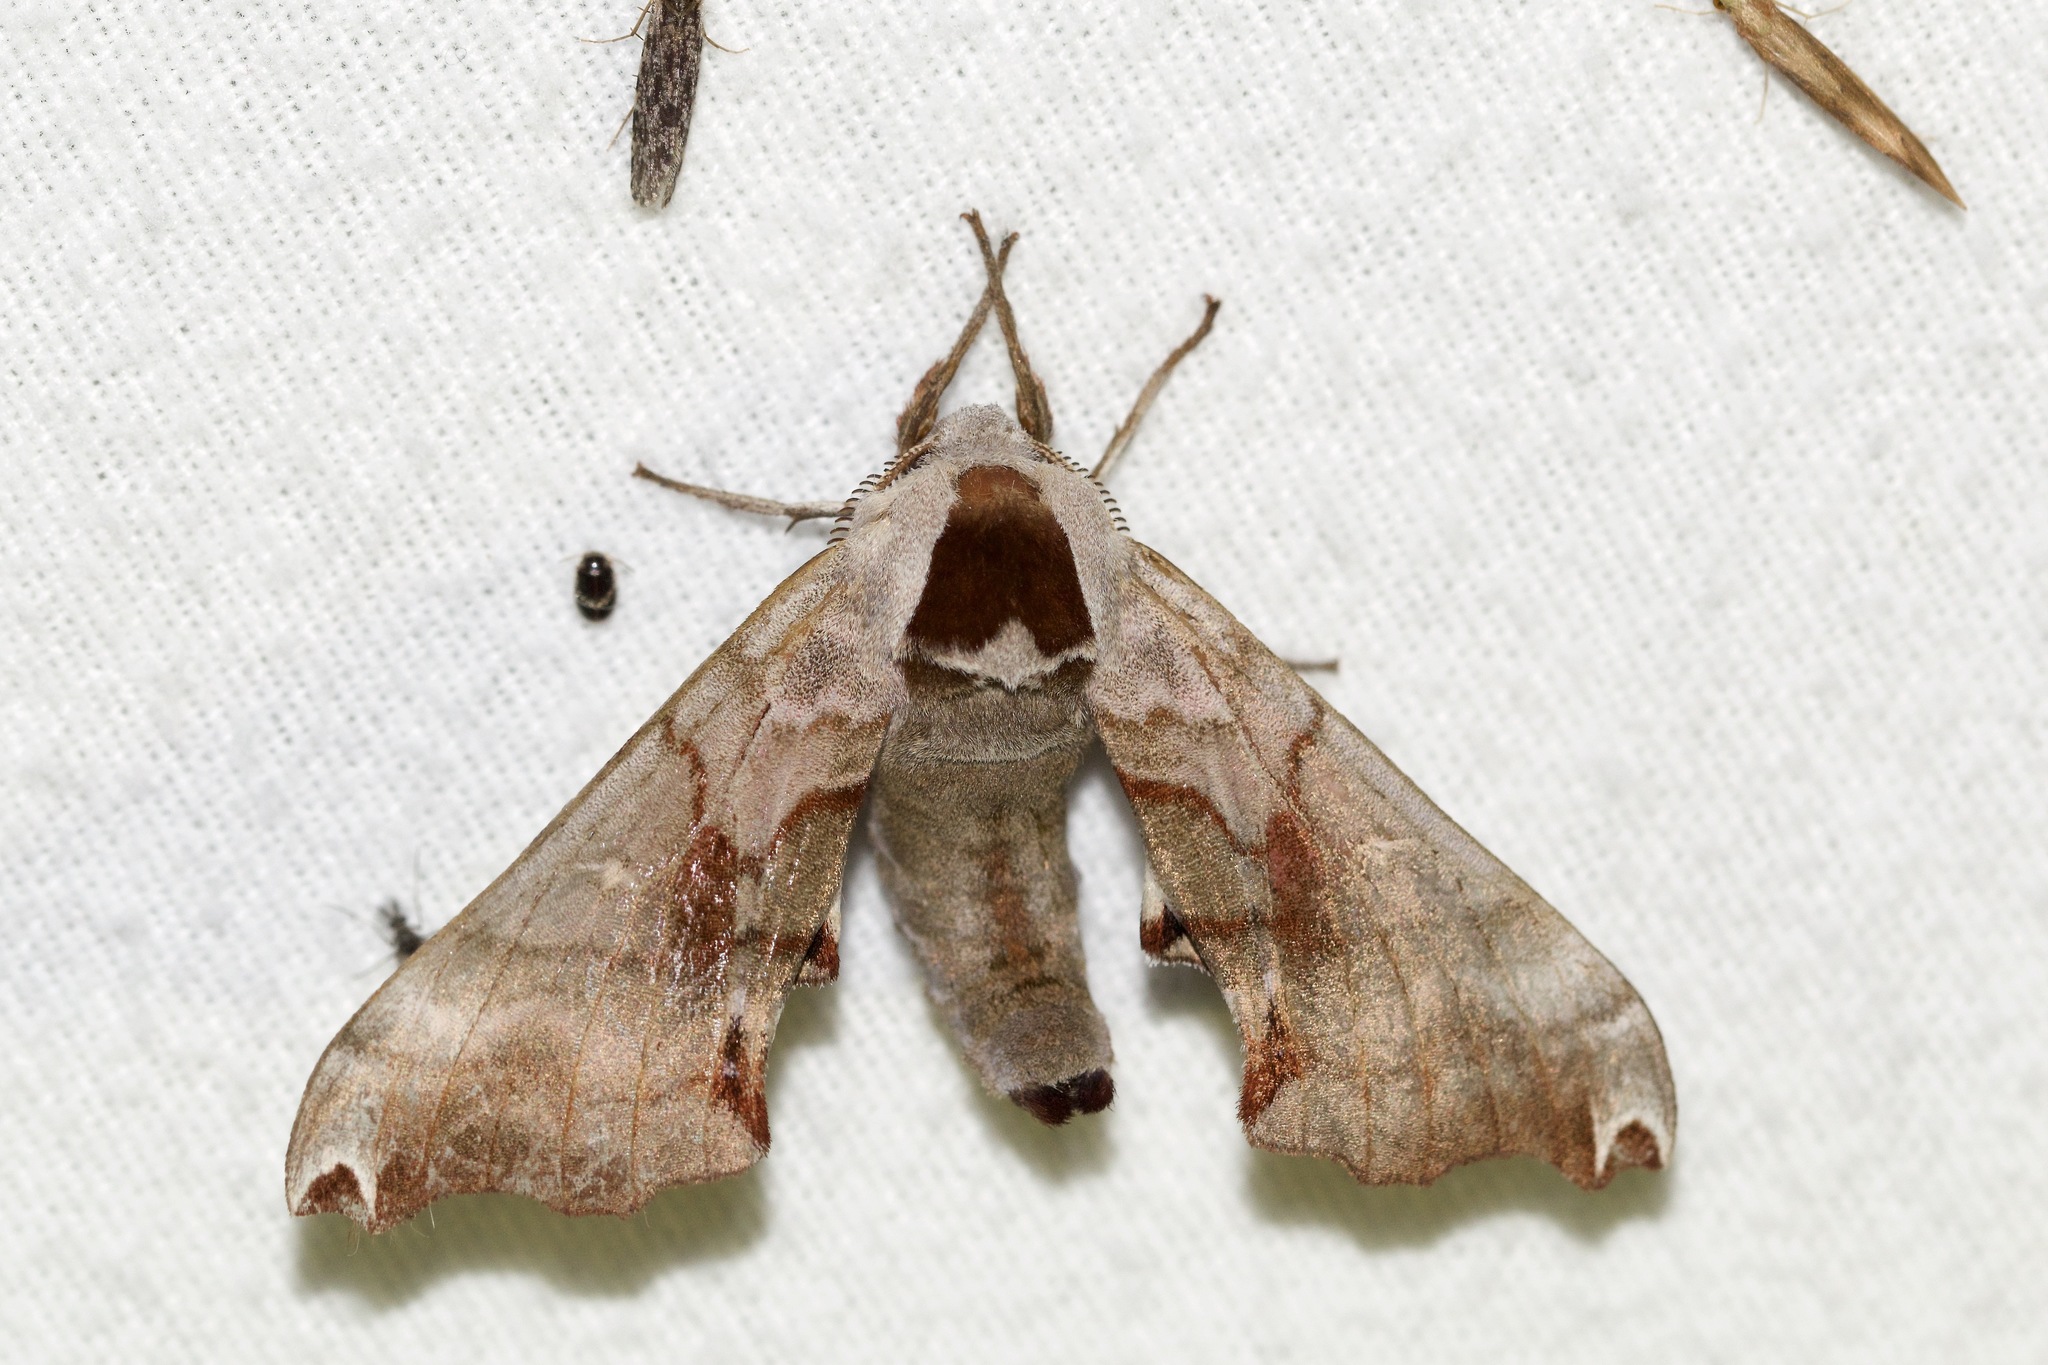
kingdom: Animalia
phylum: Arthropoda
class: Insecta
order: Lepidoptera
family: Sphingidae
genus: Smerinthus
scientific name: Smerinthus jamaicensis
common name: Twin spotted sphinx
